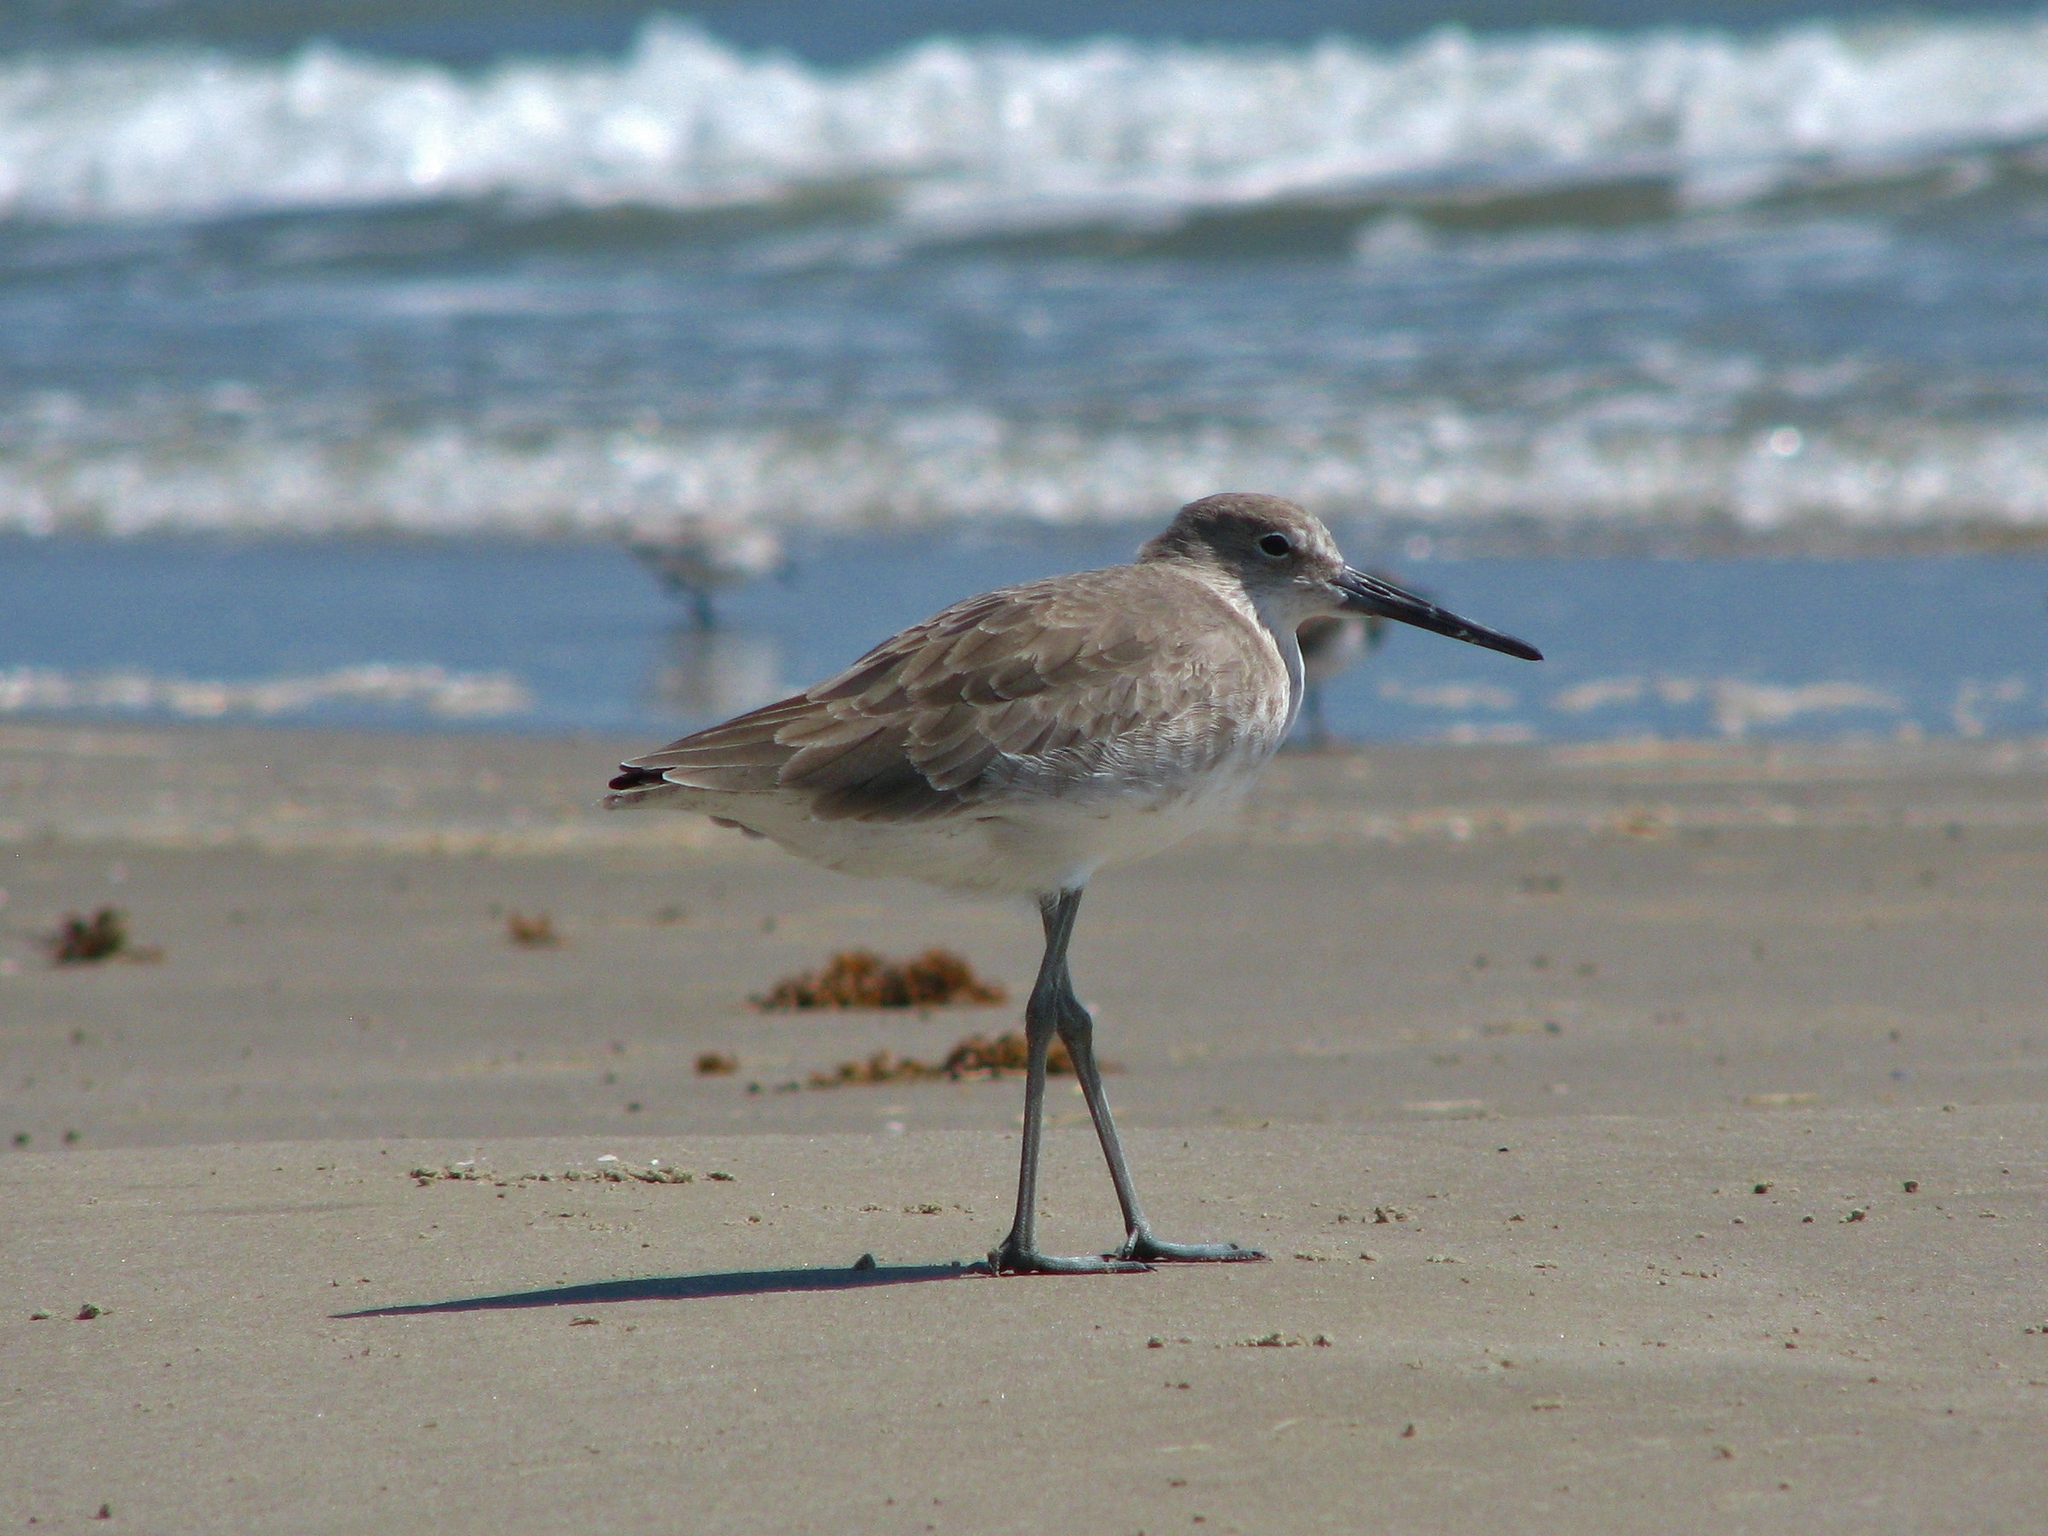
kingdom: Animalia
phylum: Chordata
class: Aves
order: Charadriiformes
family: Scolopacidae
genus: Tringa
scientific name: Tringa semipalmata
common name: Willet
